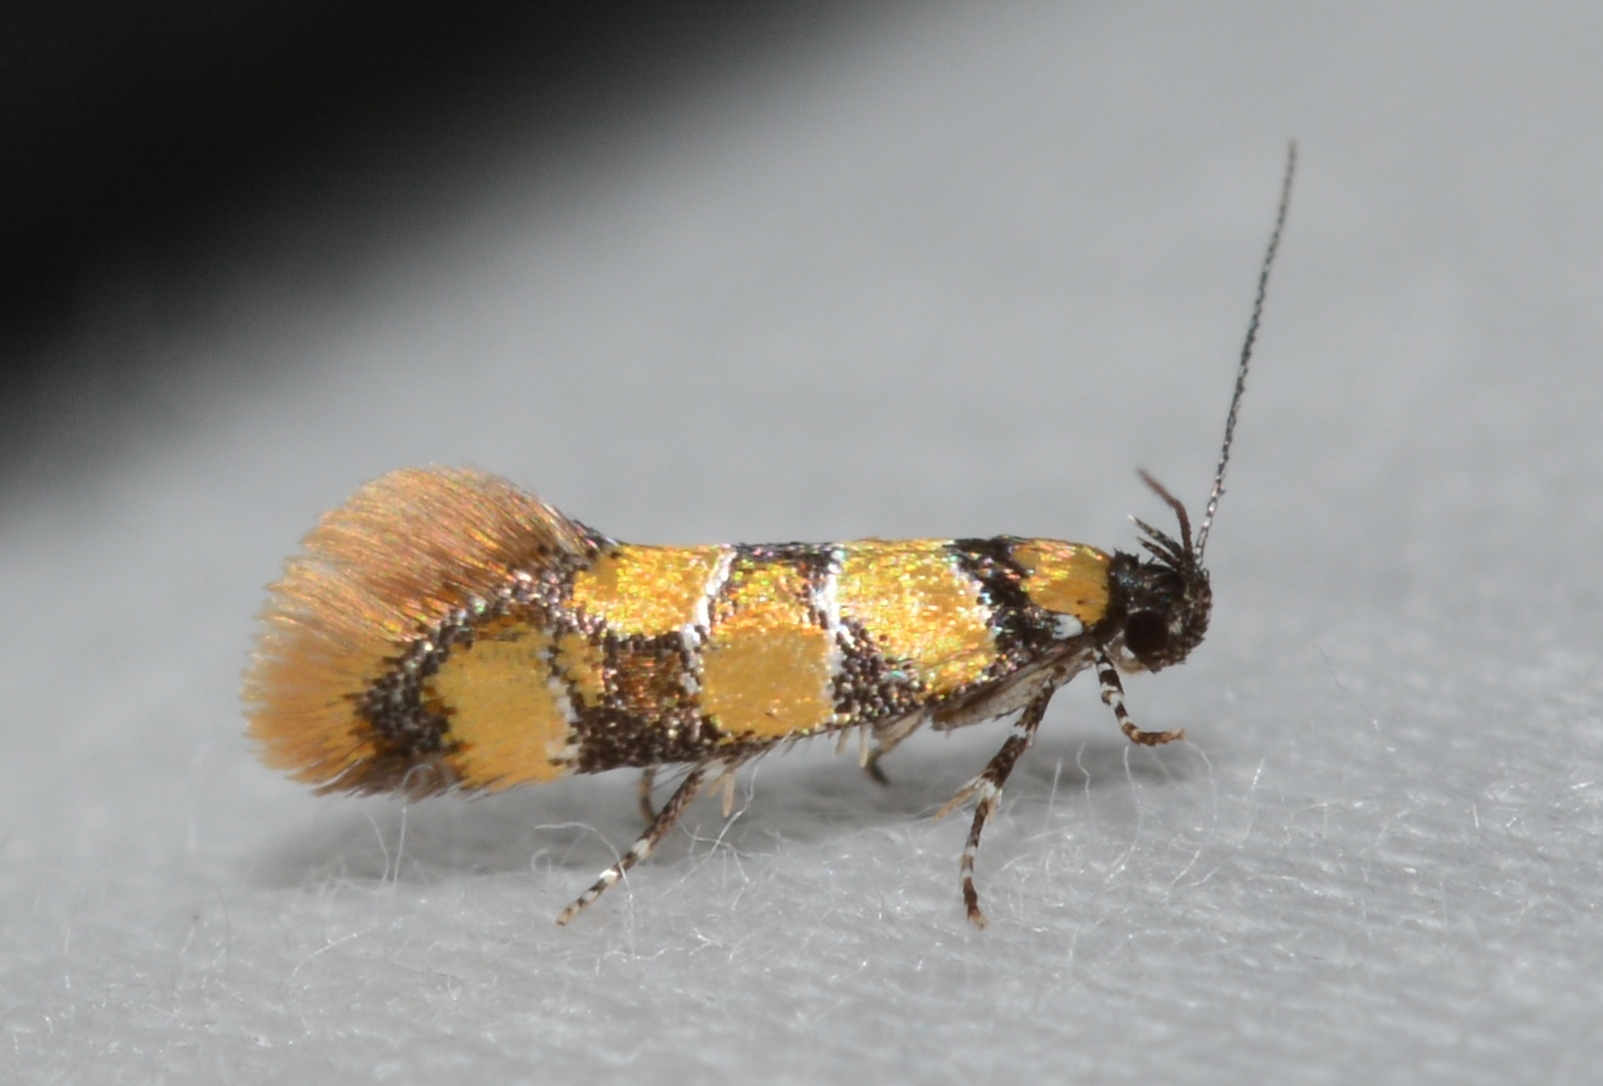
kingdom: Animalia
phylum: Arthropoda
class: Insecta
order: Lepidoptera
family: Oecophoridae
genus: Decantha
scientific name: Decantha borkhausenii
